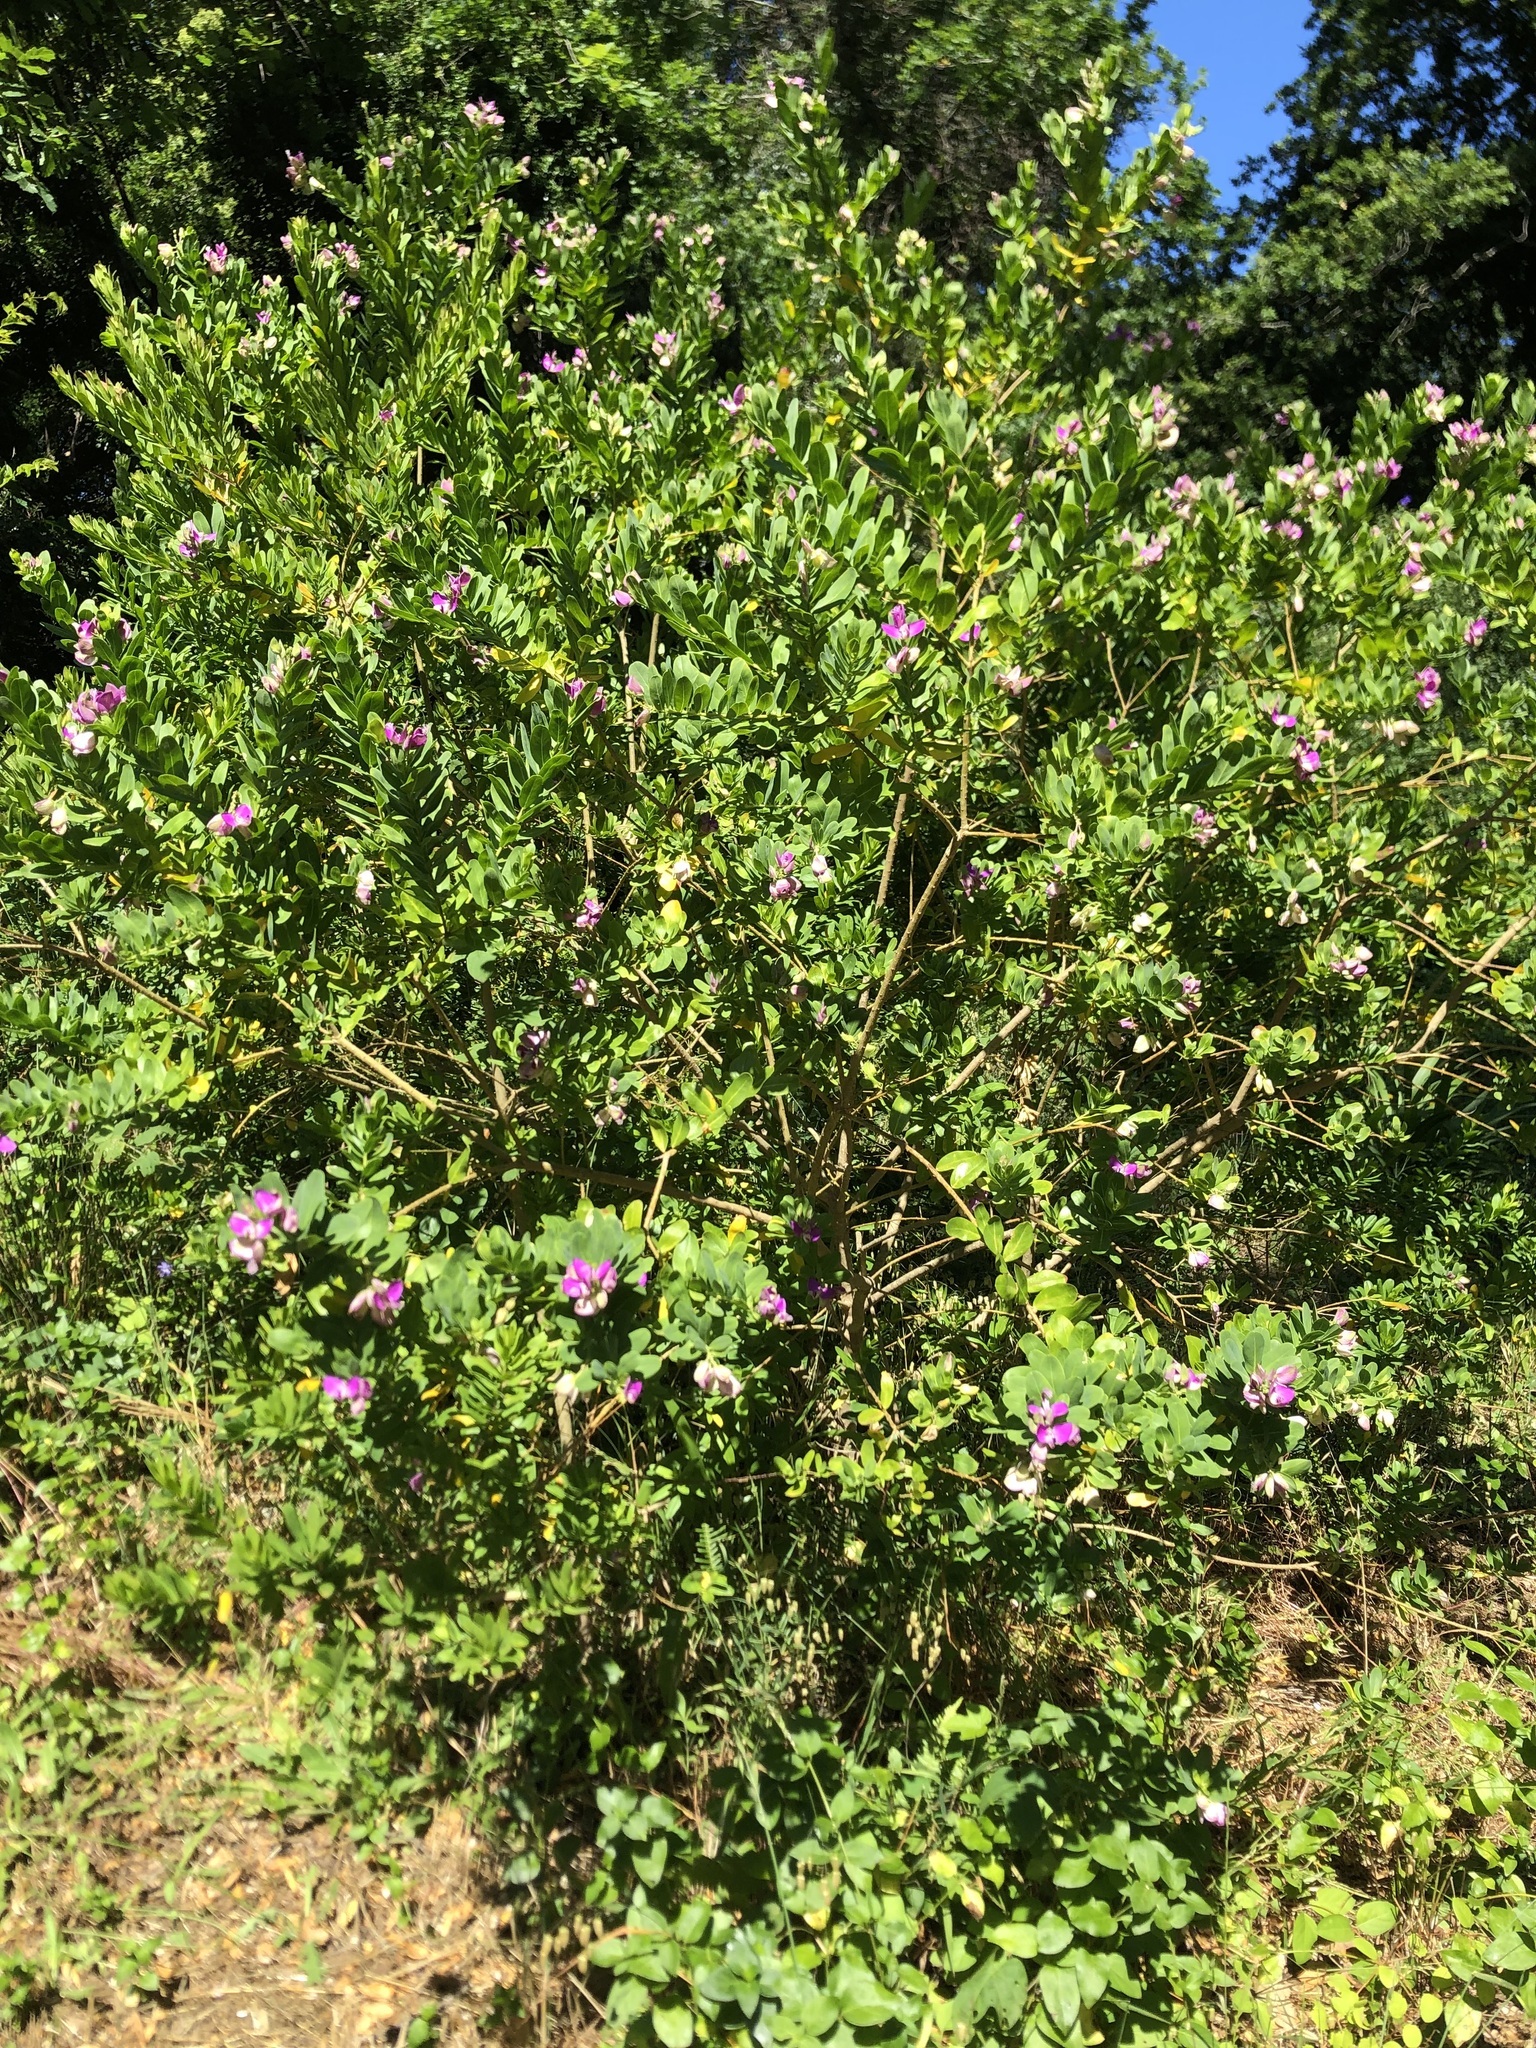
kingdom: Plantae
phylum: Tracheophyta
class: Magnoliopsida
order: Fabales
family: Polygalaceae
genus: Polygala
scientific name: Polygala myrtifolia
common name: Myrtle-leaf milkwort
